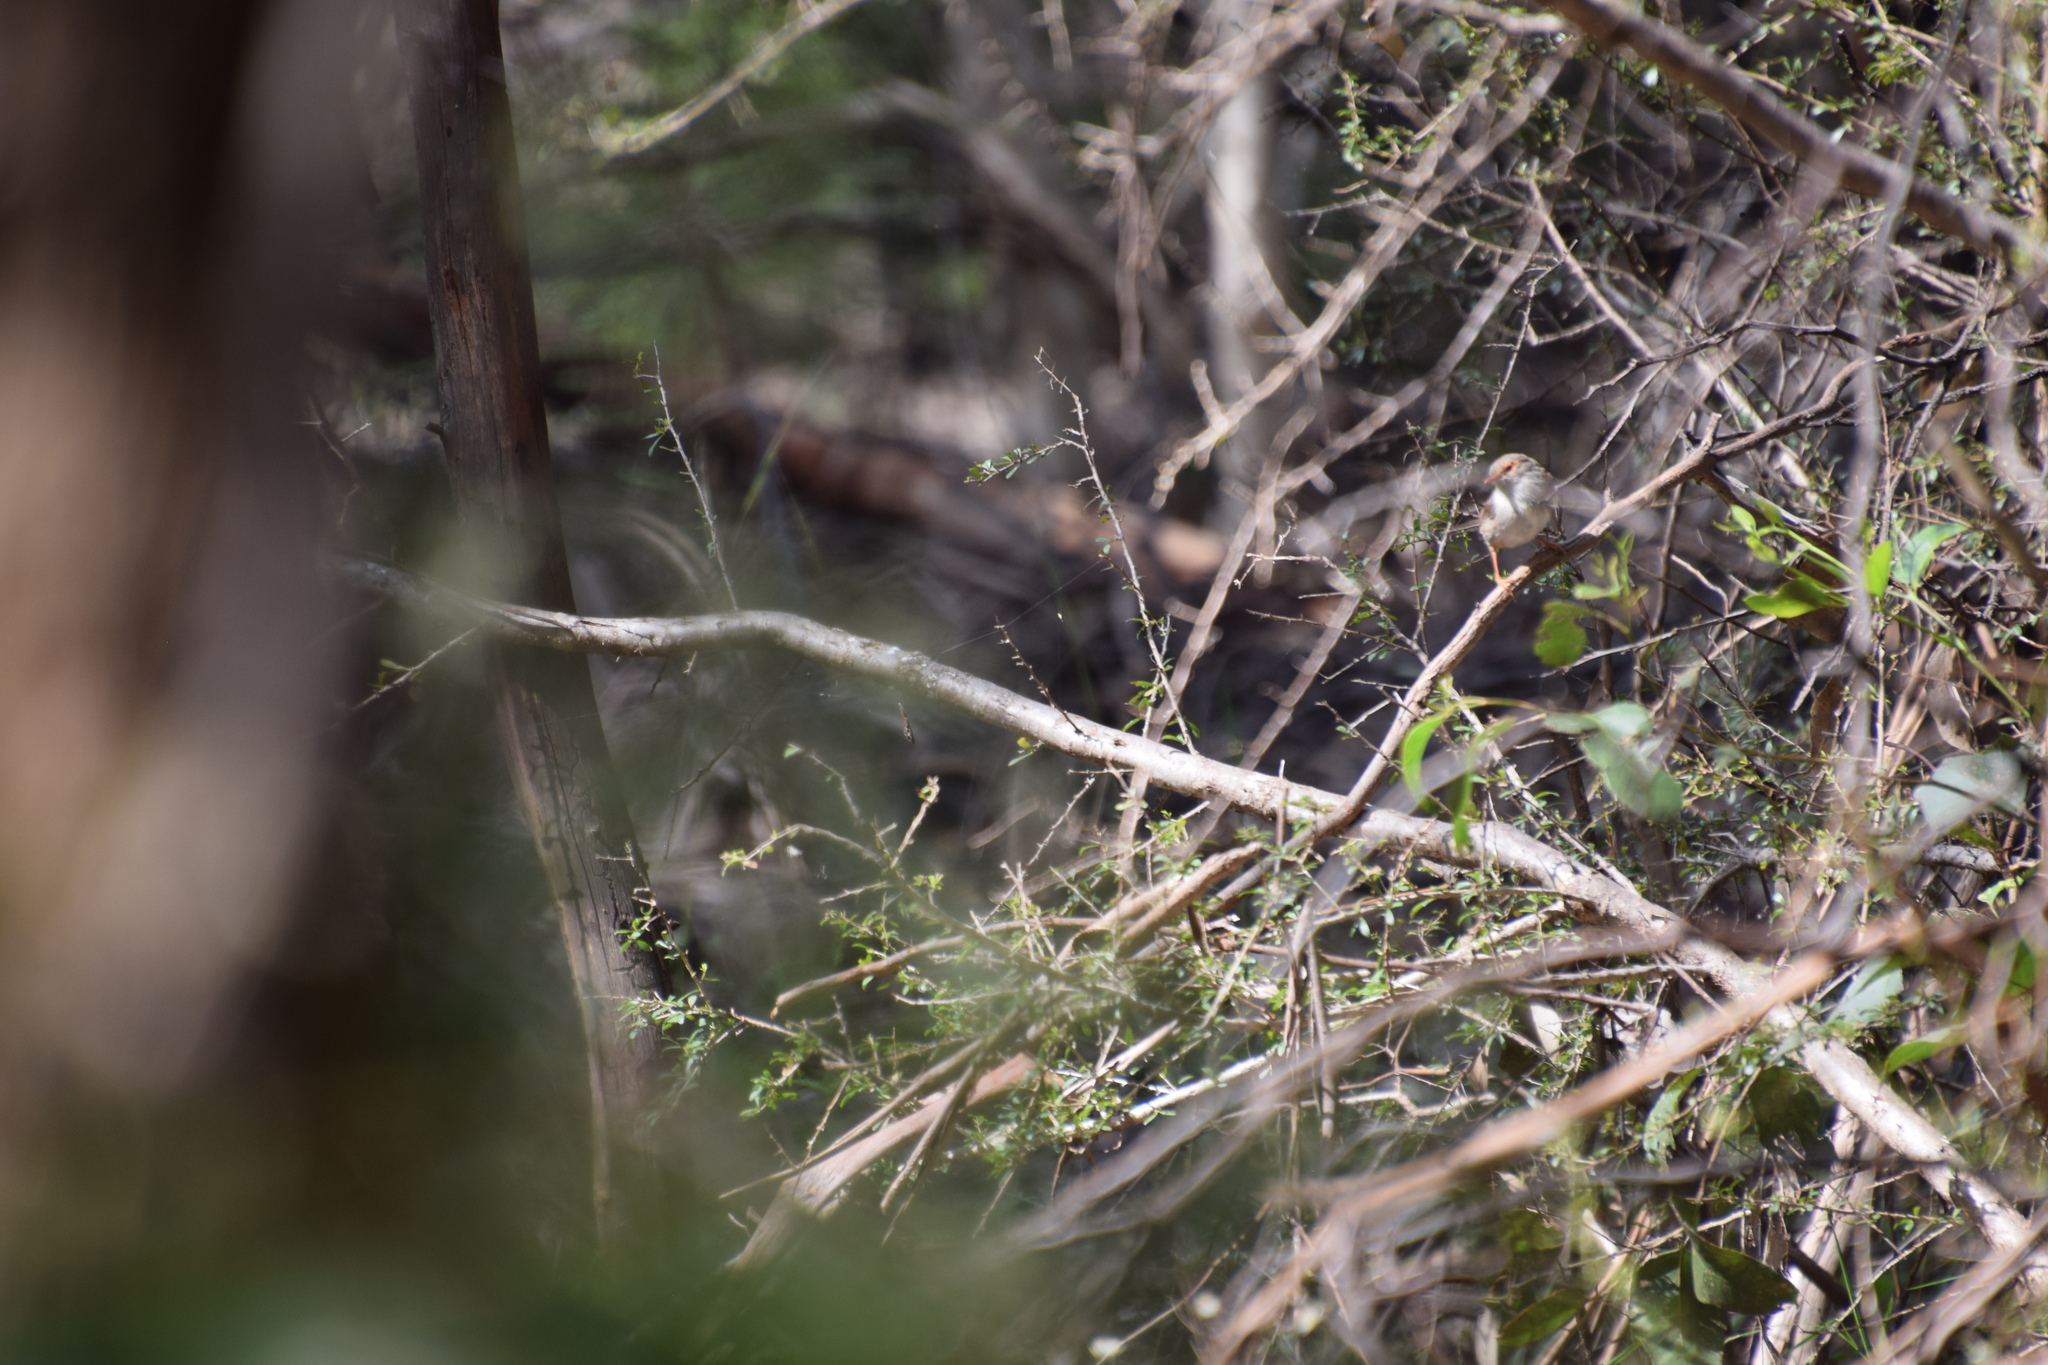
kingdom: Animalia
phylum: Chordata
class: Aves
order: Passeriformes
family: Maluridae
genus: Malurus
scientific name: Malurus cyaneus
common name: Superb fairywren
